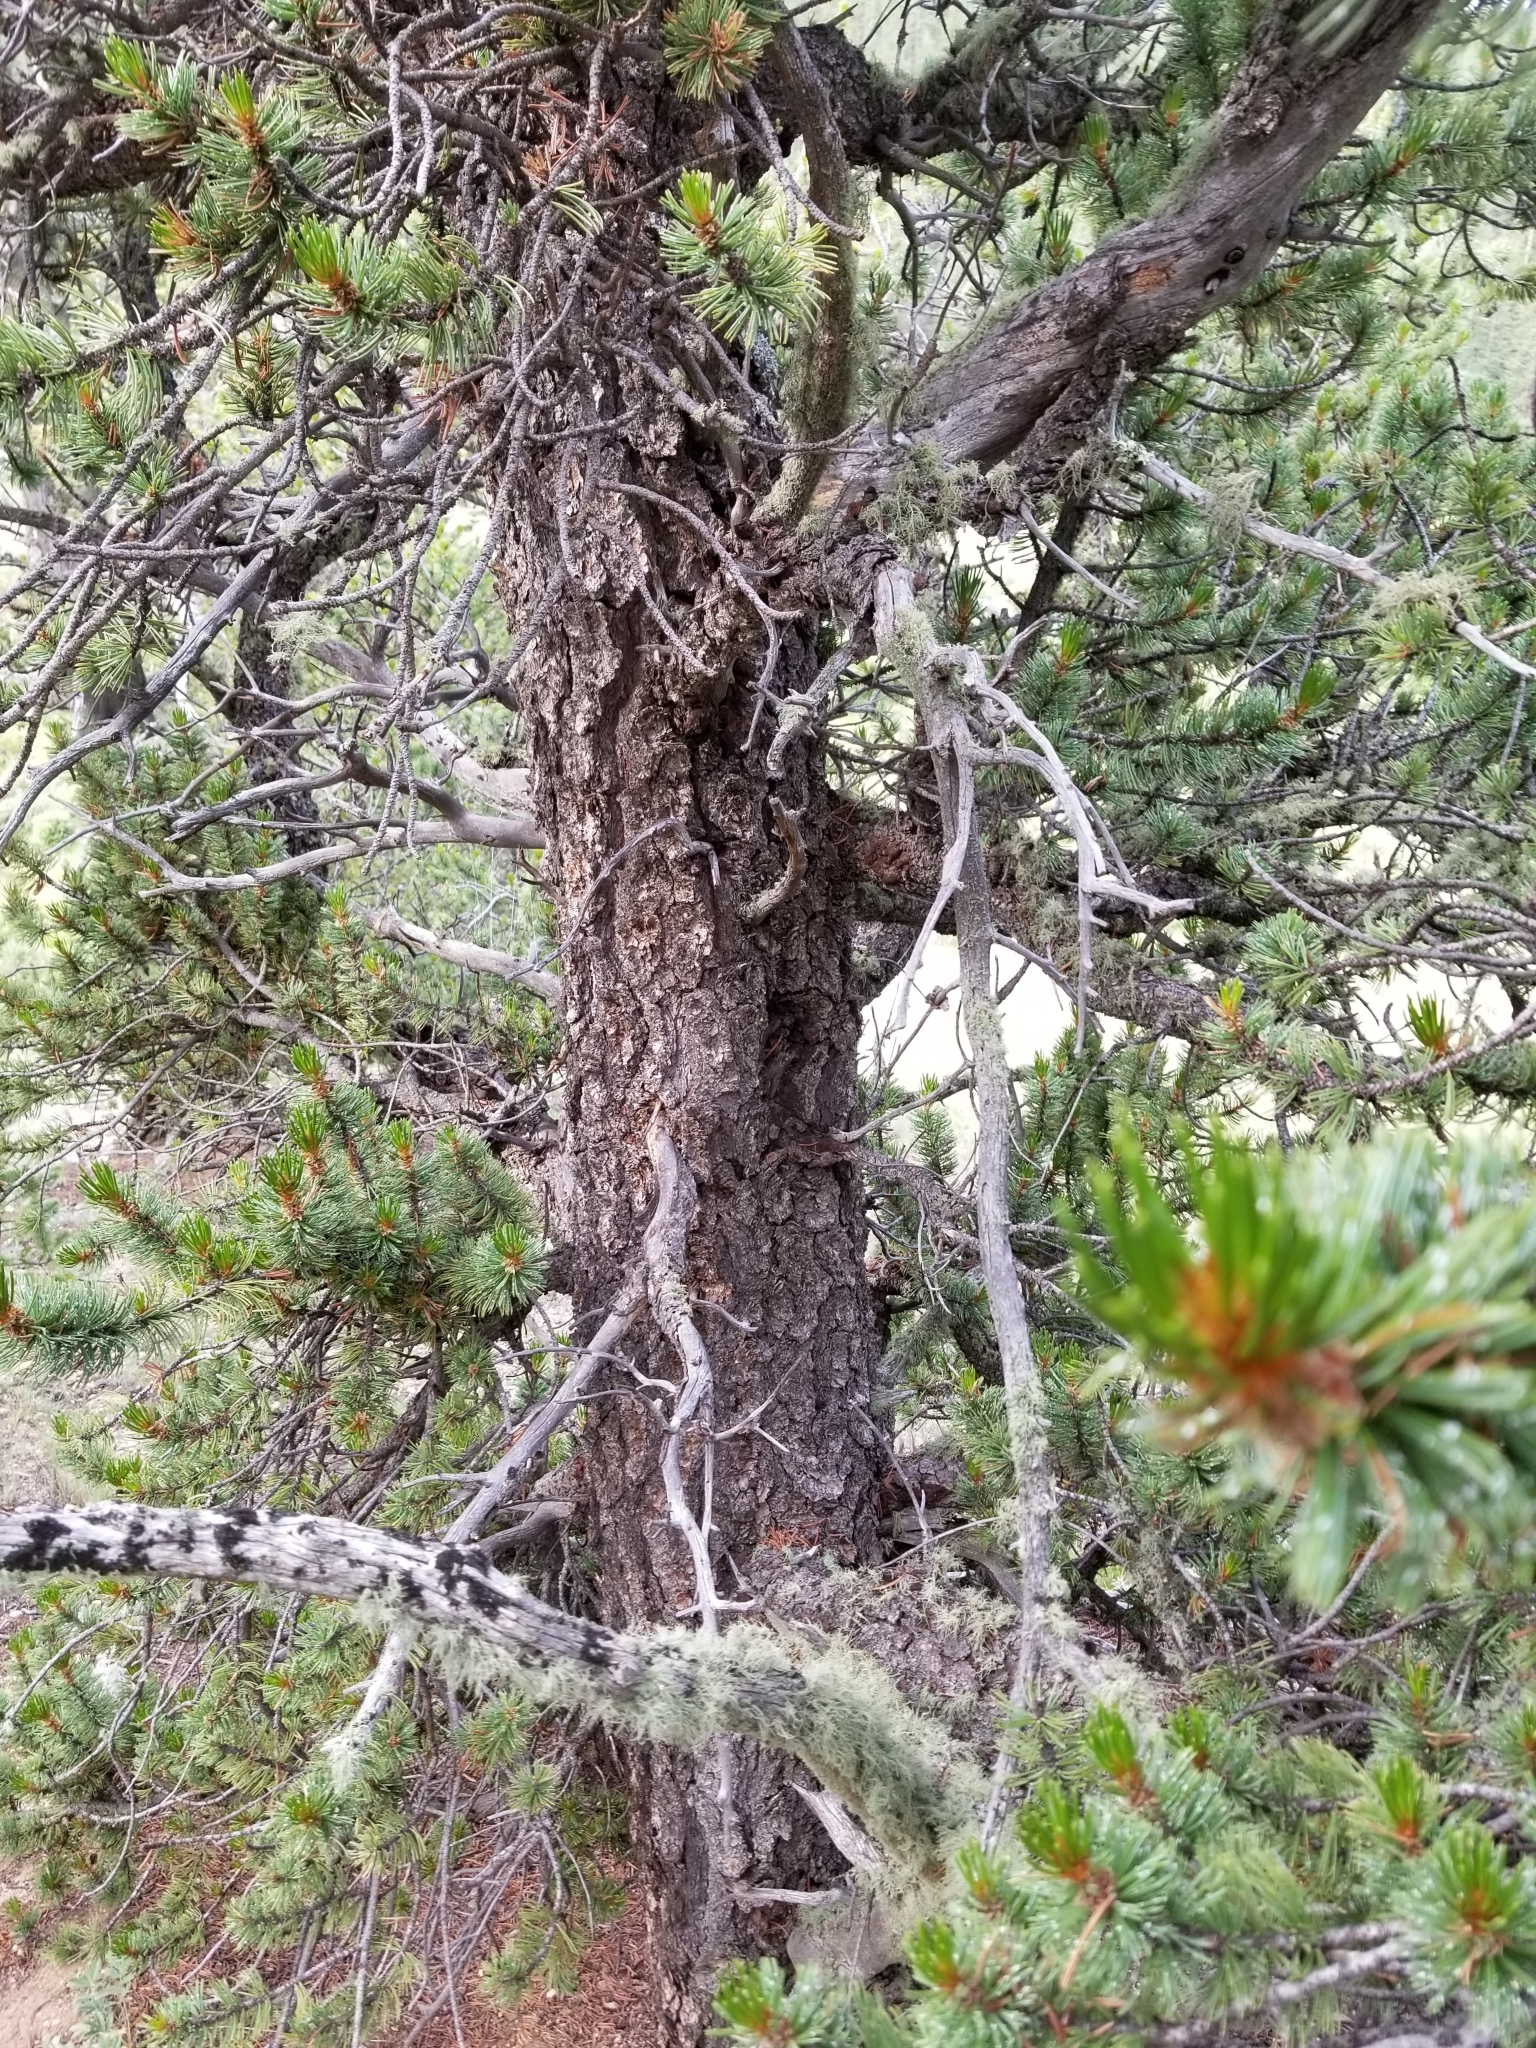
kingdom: Plantae
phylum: Tracheophyta
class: Pinopsida
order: Pinales
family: Pinaceae
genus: Pinus
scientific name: Pinus aristata
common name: Colorado bristlecone pine
